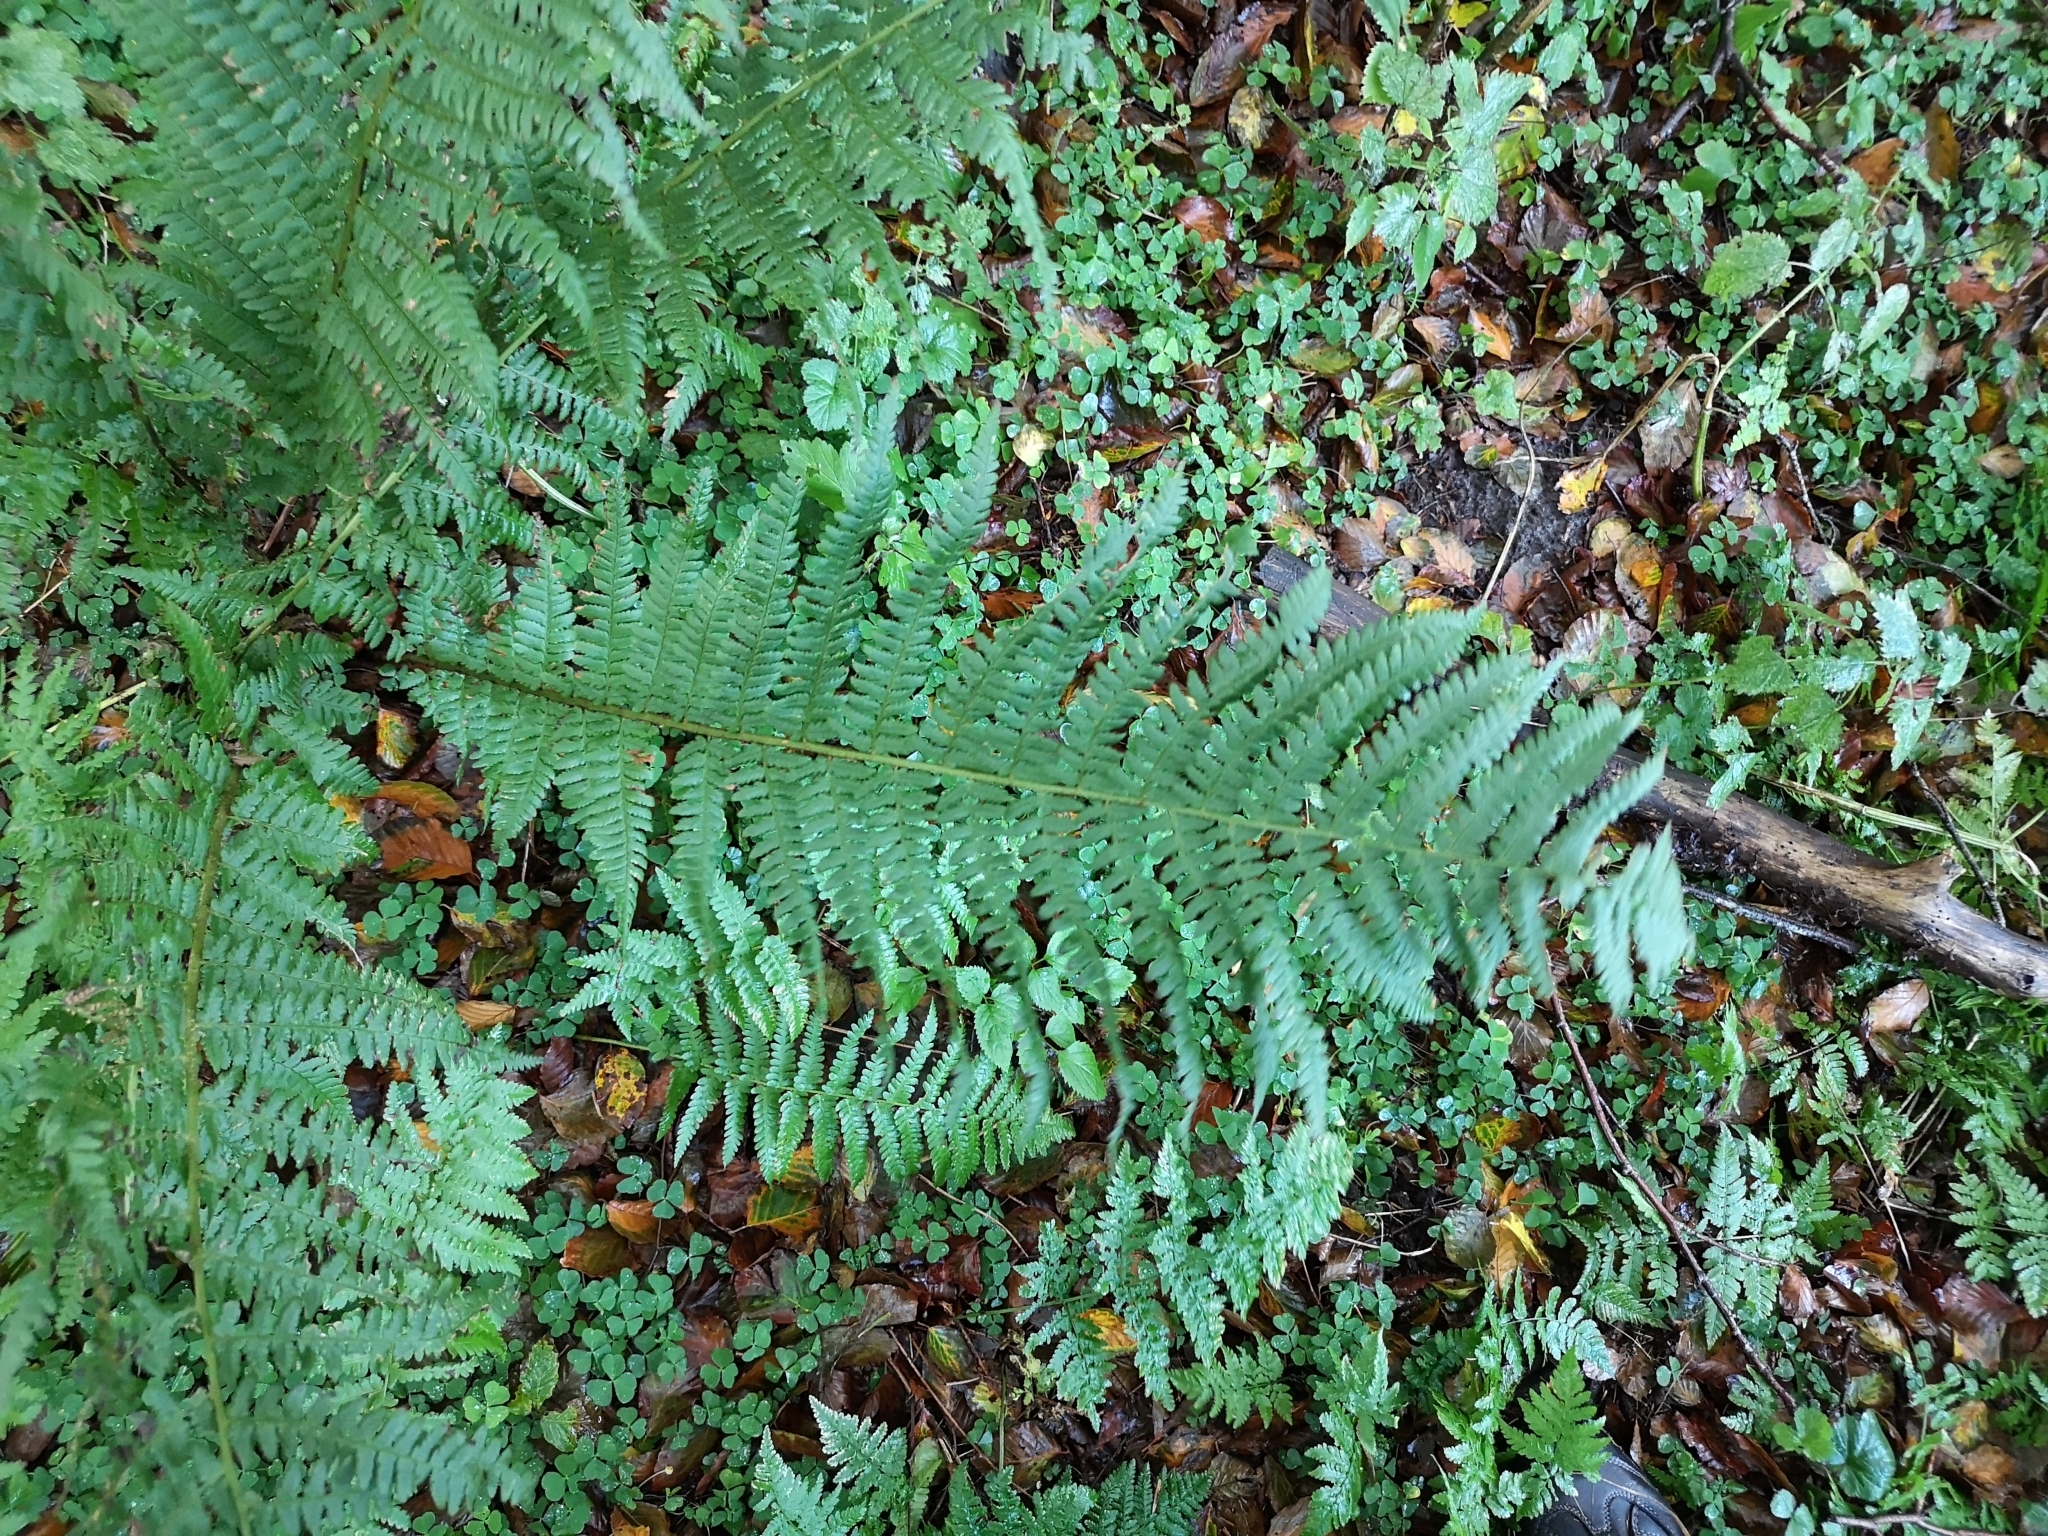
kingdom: Plantae
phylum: Tracheophyta
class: Polypodiopsida
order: Polypodiales
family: Dryopteridaceae
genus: Dryopteris
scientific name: Dryopteris filix-mas
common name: Male fern
